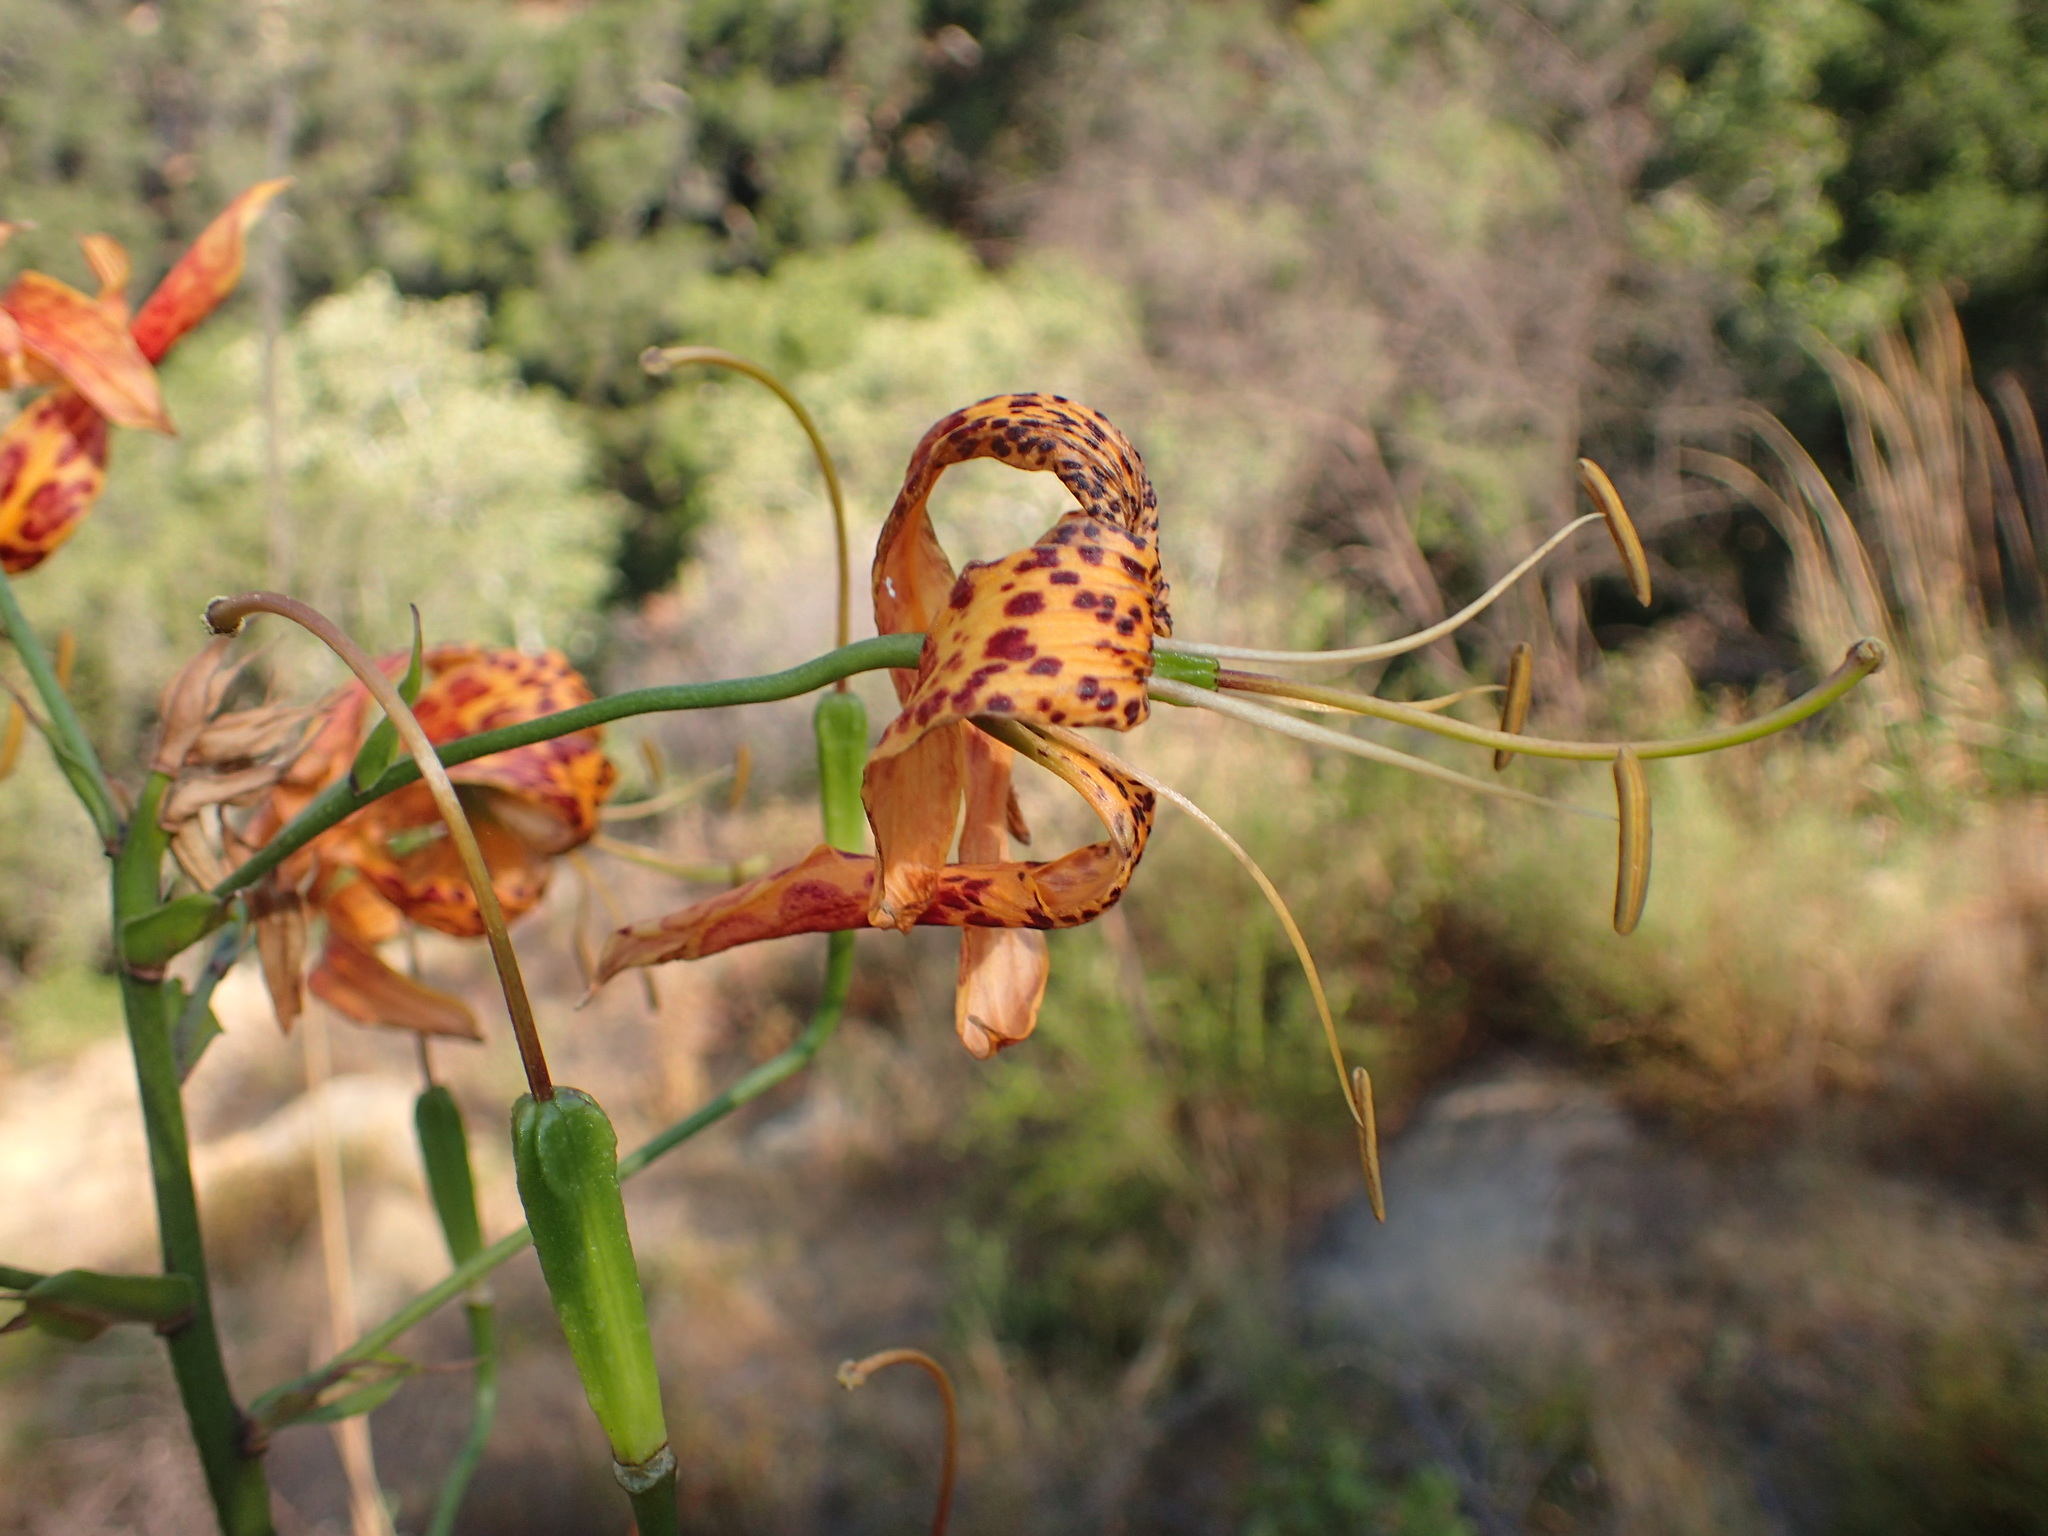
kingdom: Plantae
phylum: Tracheophyta
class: Liliopsida
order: Liliales
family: Liliaceae
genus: Lilium
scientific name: Lilium humboldtii
